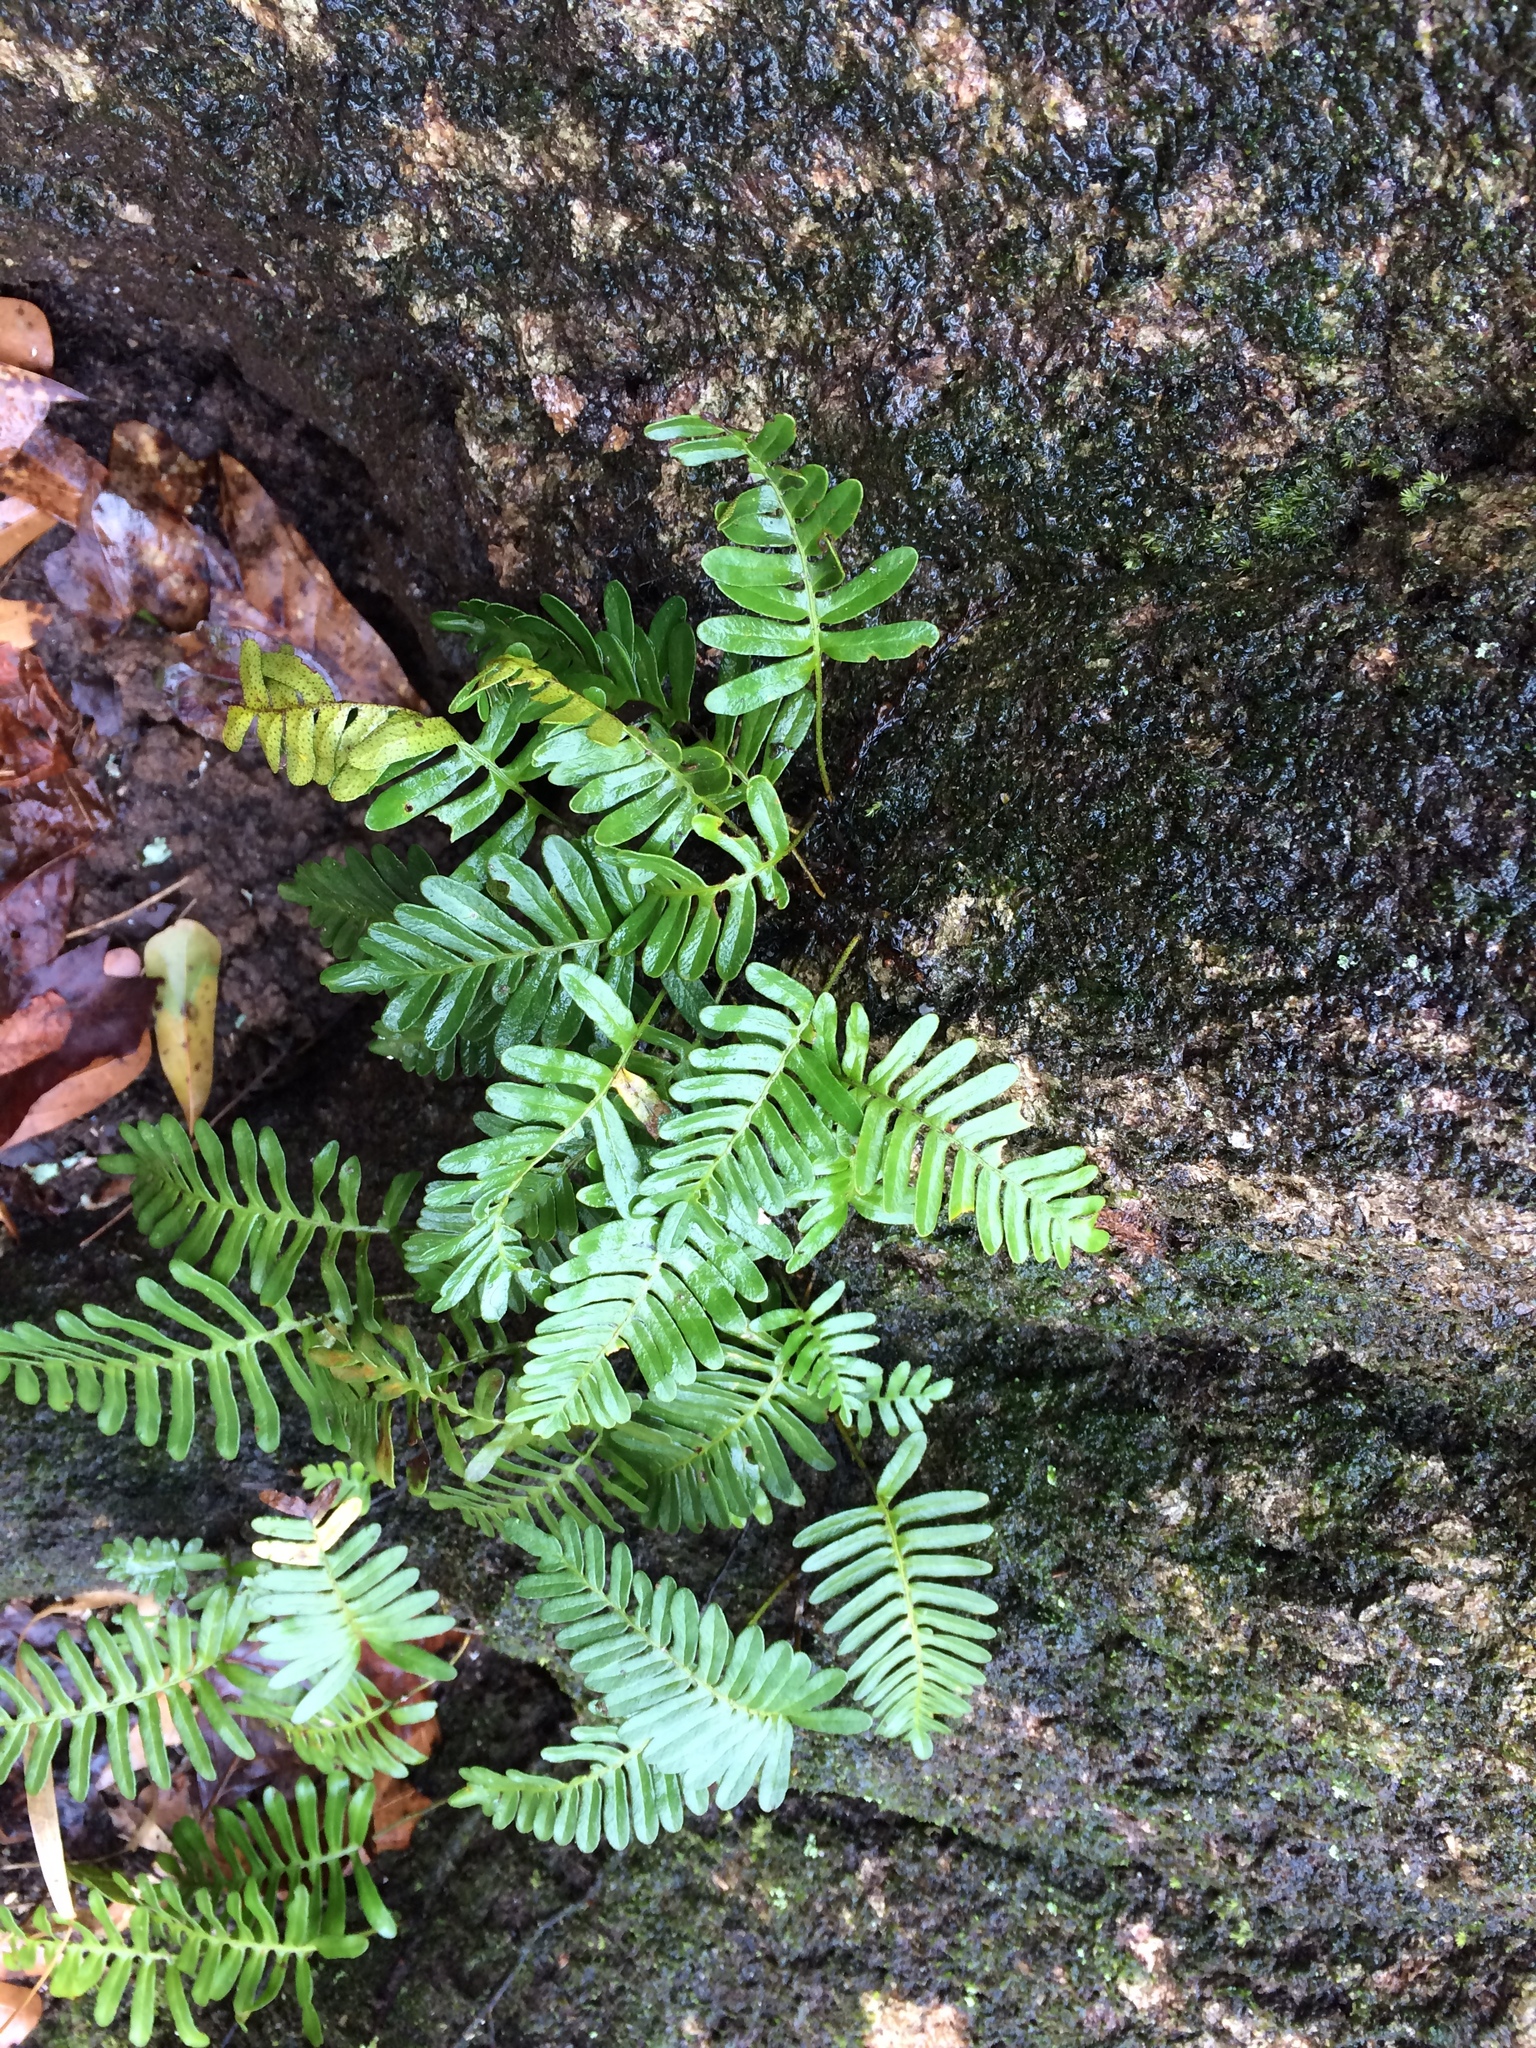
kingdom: Plantae
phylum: Tracheophyta
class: Polypodiopsida
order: Polypodiales
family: Polypodiaceae
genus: Pleopeltis
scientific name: Pleopeltis michauxiana
